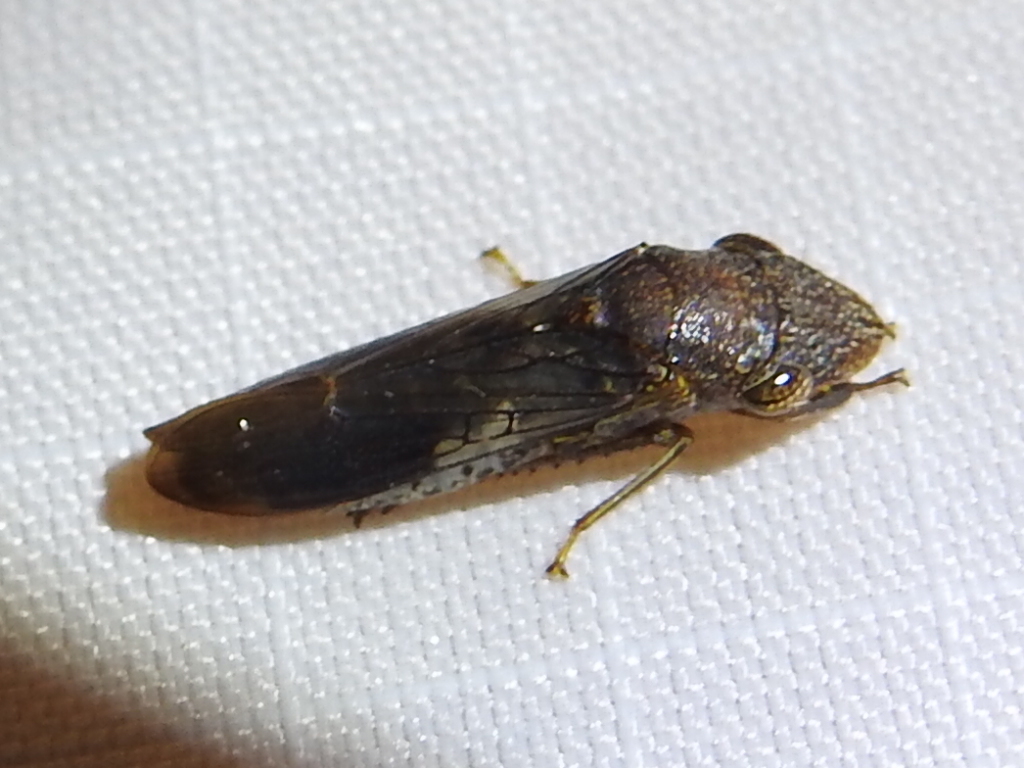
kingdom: Animalia
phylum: Arthropoda
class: Insecta
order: Hemiptera
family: Cicadellidae
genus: Homalodisca
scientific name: Homalodisca vitripennis
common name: Glassy-winged sharpshooter
